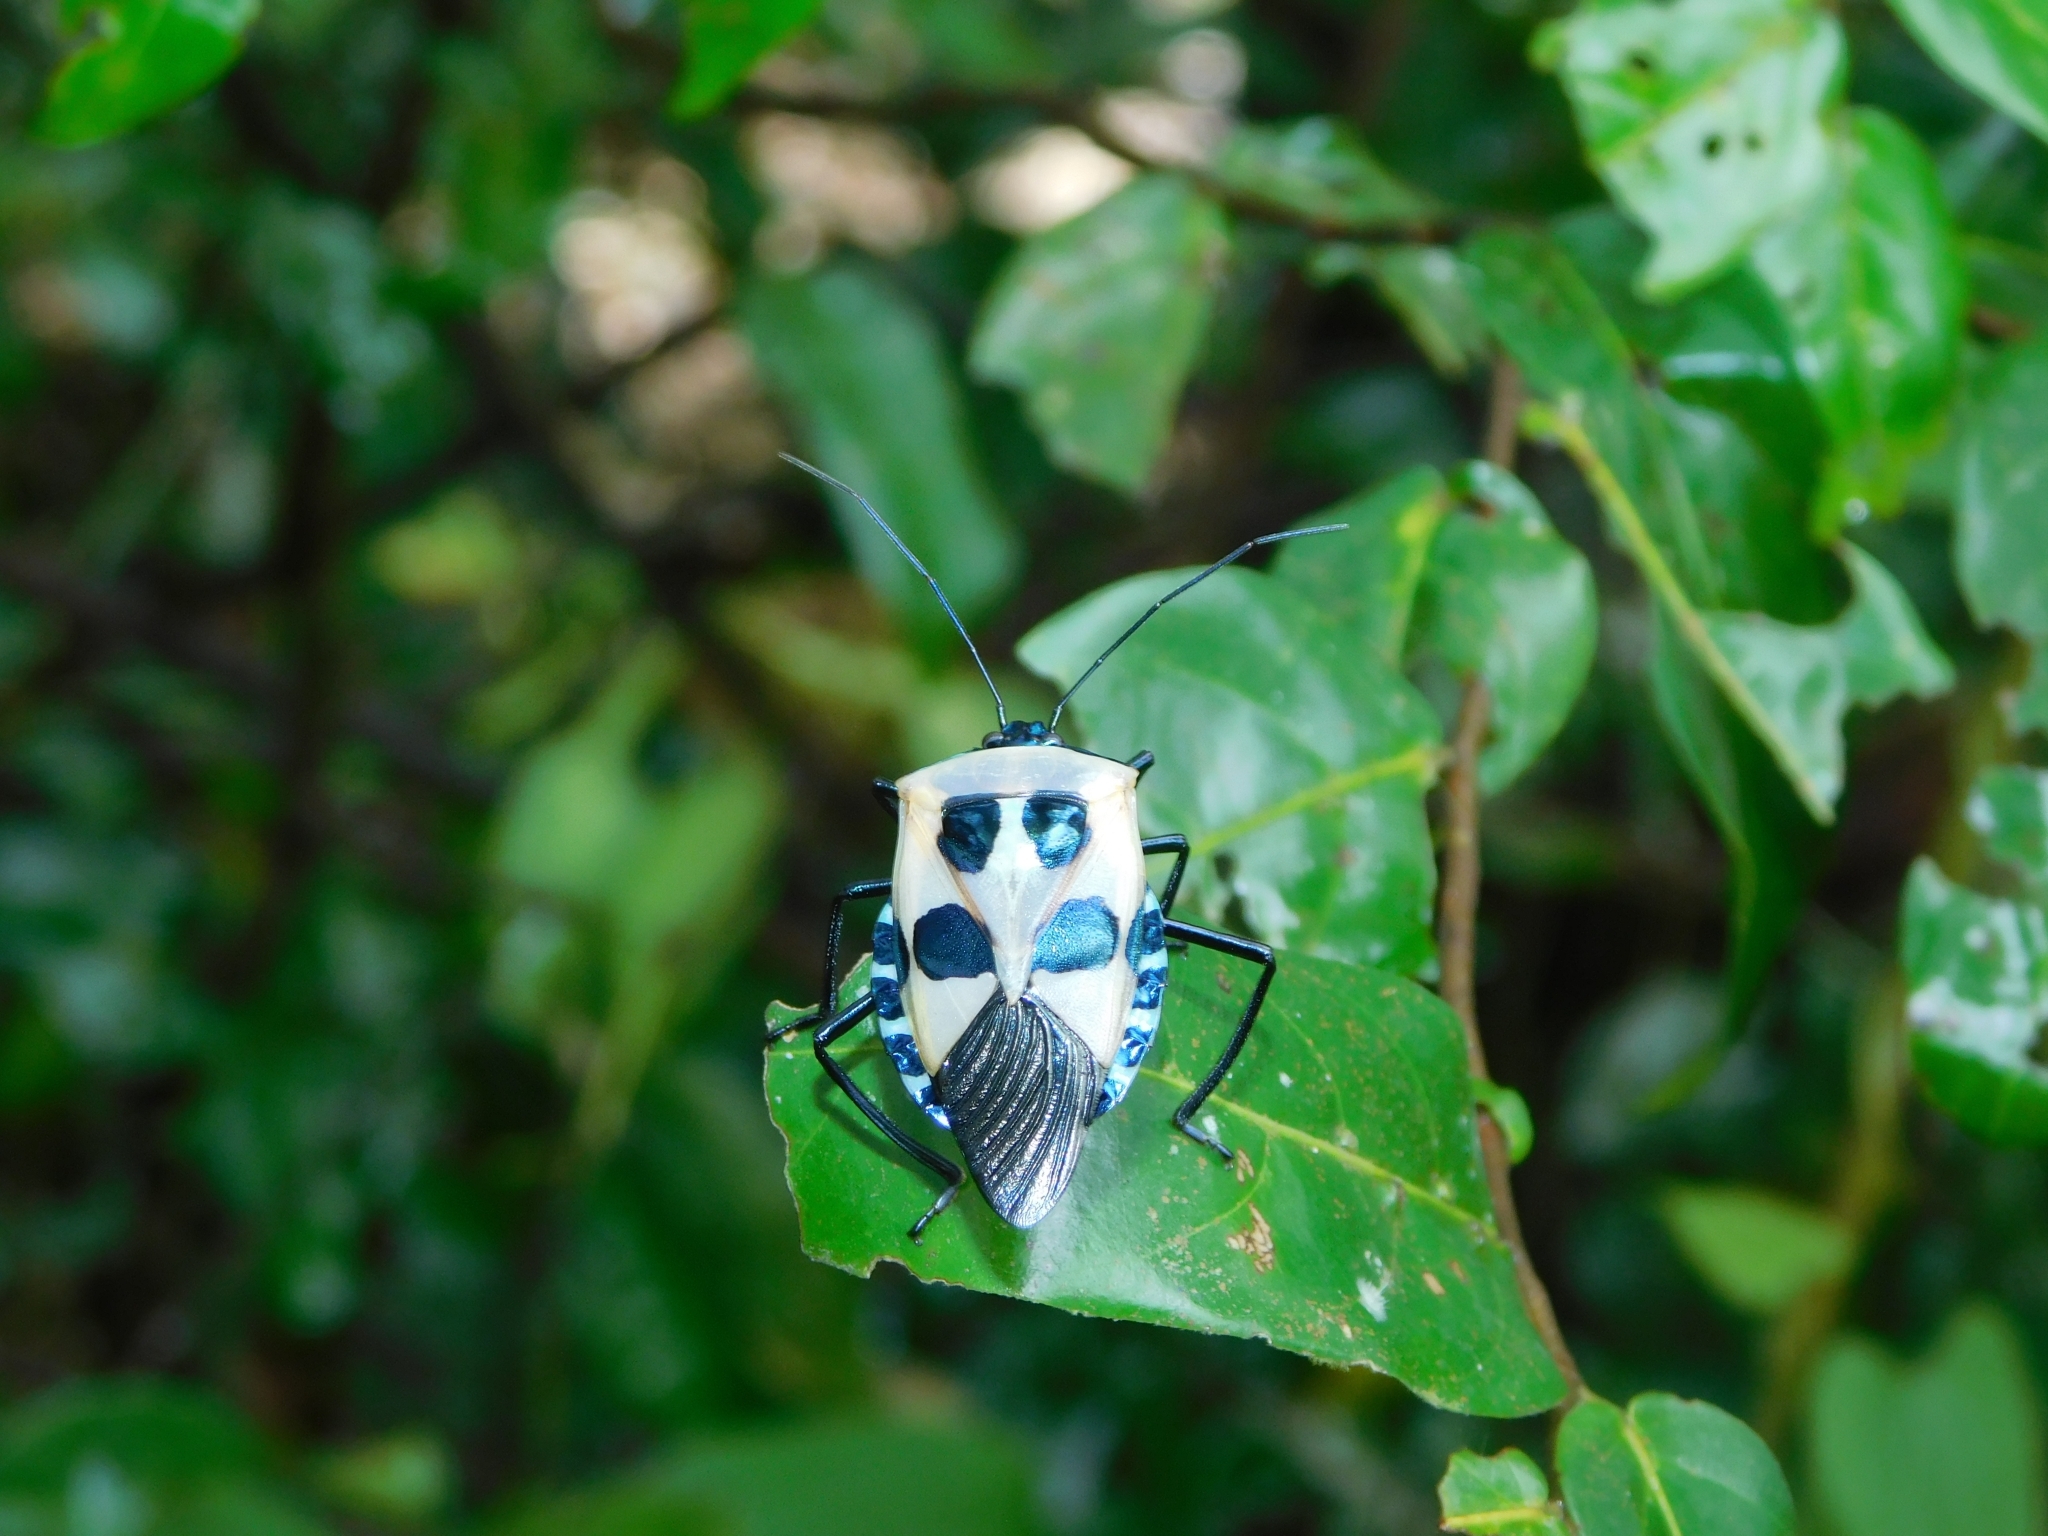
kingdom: Animalia
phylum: Arthropoda
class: Insecta
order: Hemiptera
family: Pentatomidae
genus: Catacanthus
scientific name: Catacanthus incarnatus
